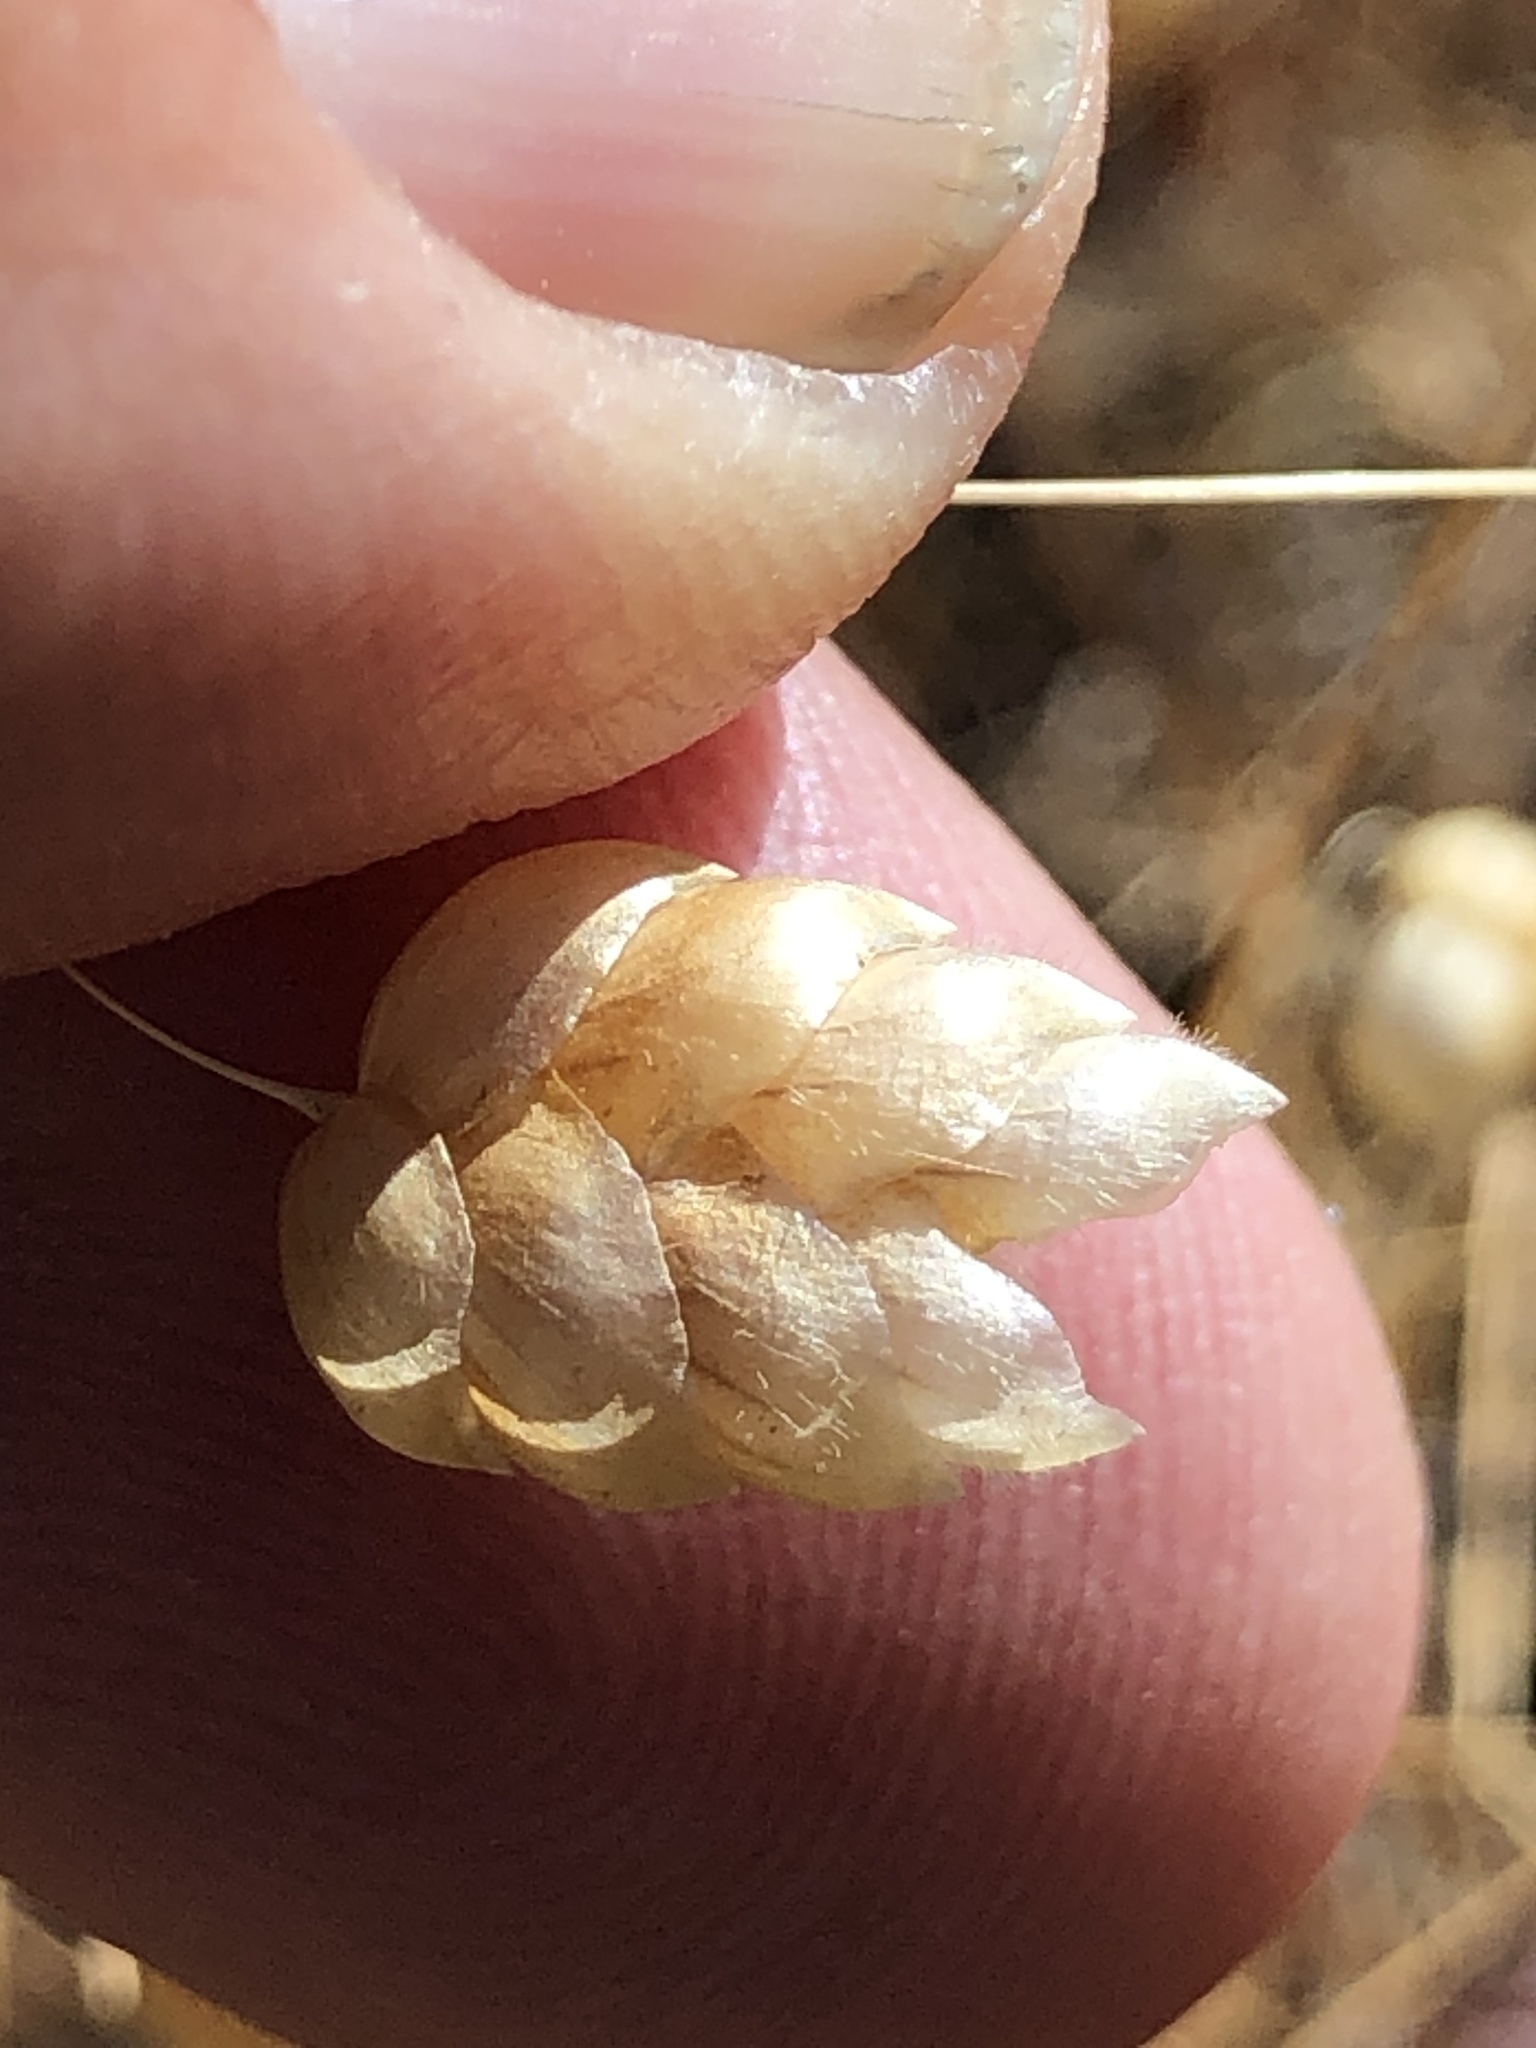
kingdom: Plantae
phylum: Tracheophyta
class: Liliopsida
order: Poales
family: Poaceae
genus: Briza
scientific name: Briza maxima
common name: Big quakinggrass
